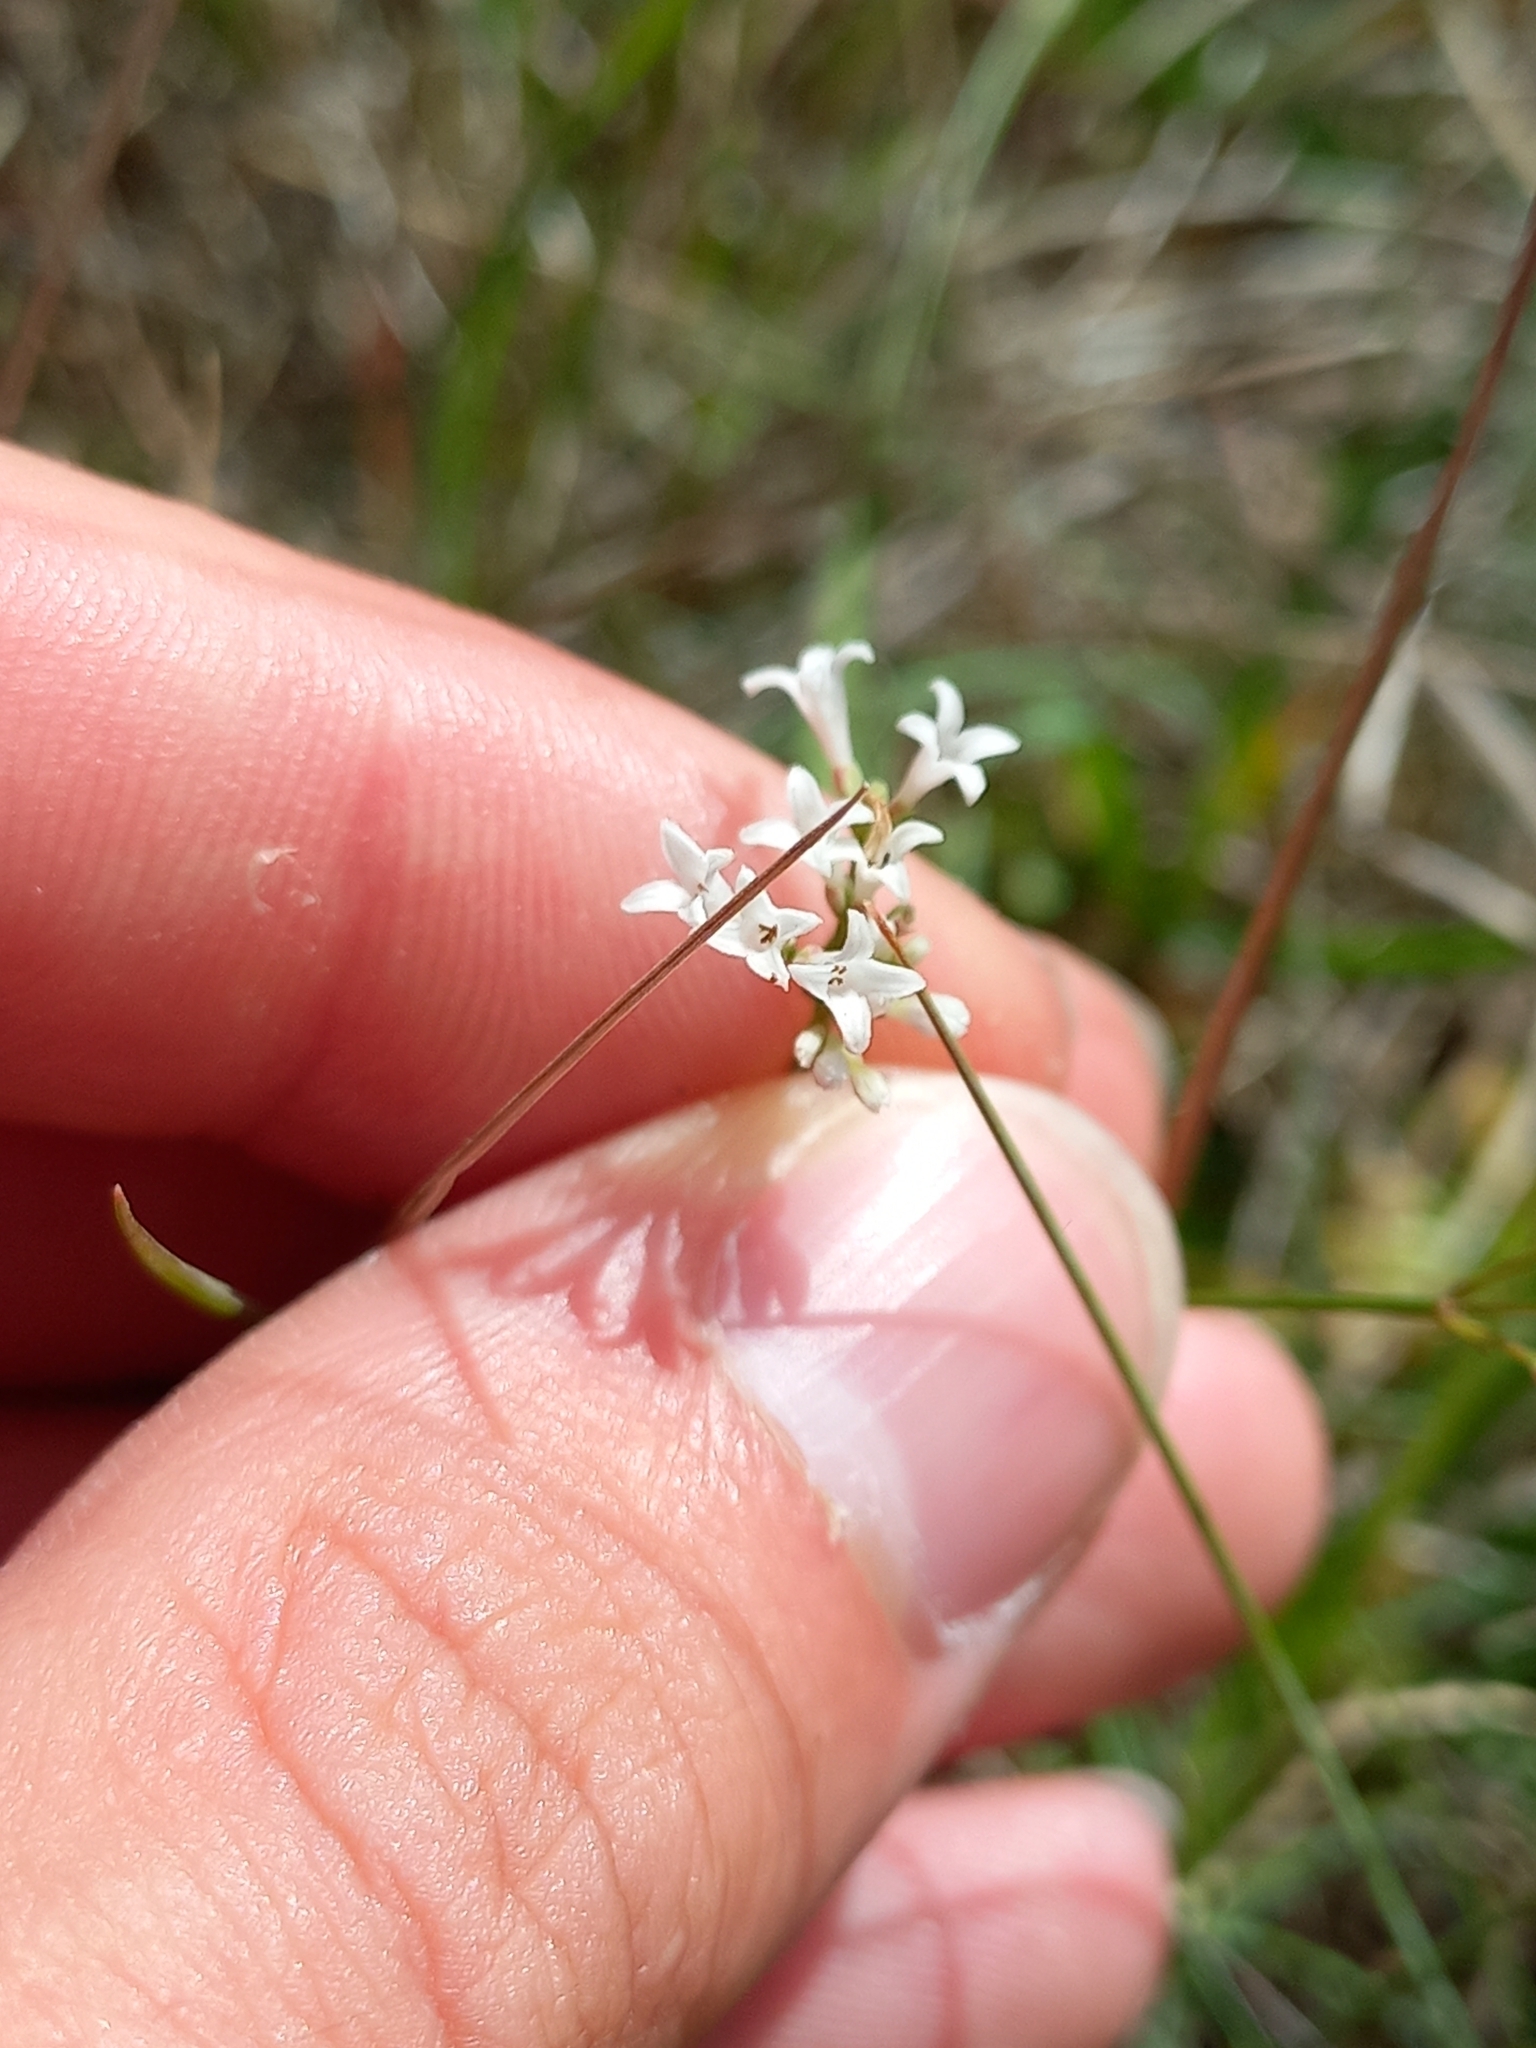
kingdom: Plantae
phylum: Tracheophyta
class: Magnoliopsida
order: Gentianales
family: Rubiaceae
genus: Cynanchica
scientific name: Cynanchica pyrenaica
